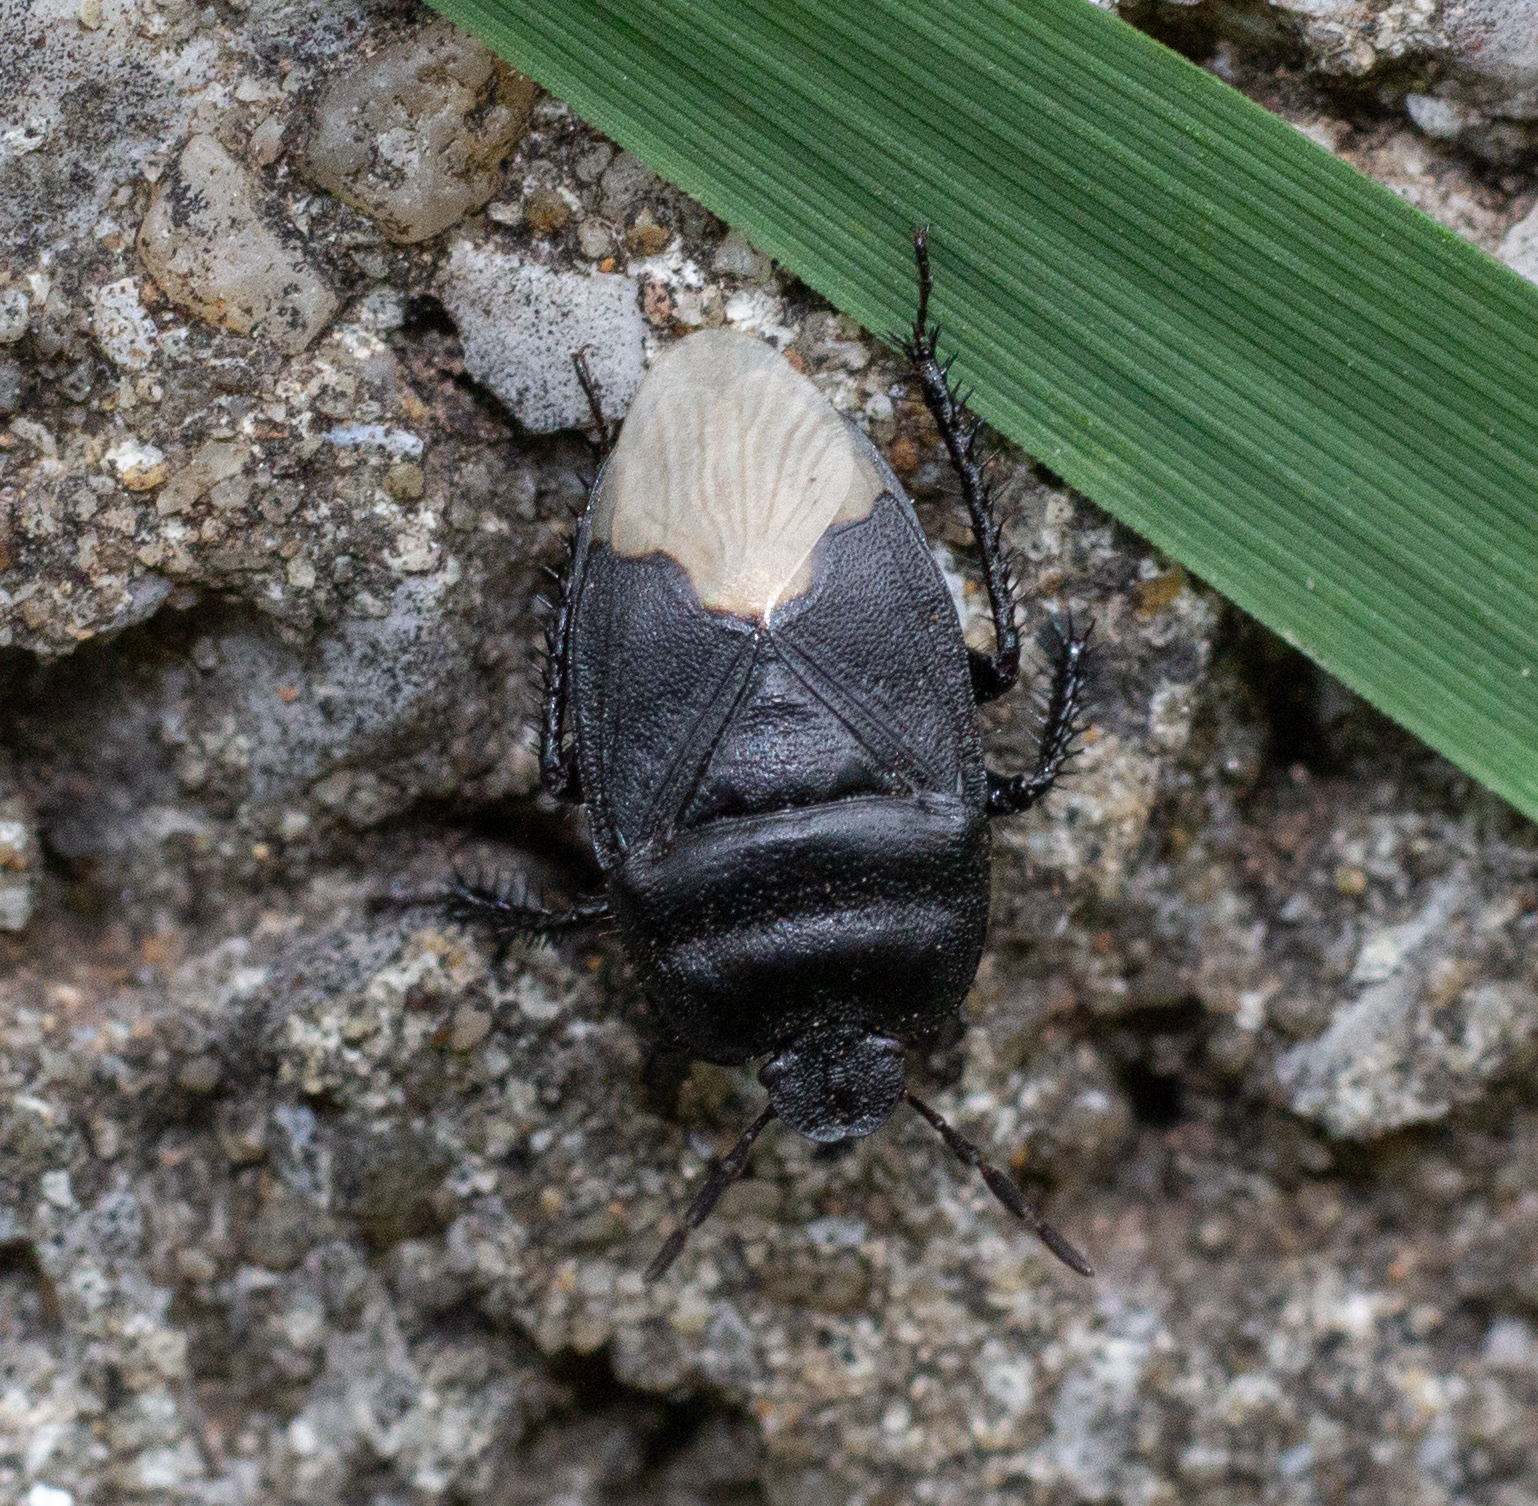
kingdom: Animalia
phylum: Arthropoda
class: Insecta
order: Hemiptera
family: Cydnidae
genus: Cydnus
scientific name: Cydnus aterrimus
